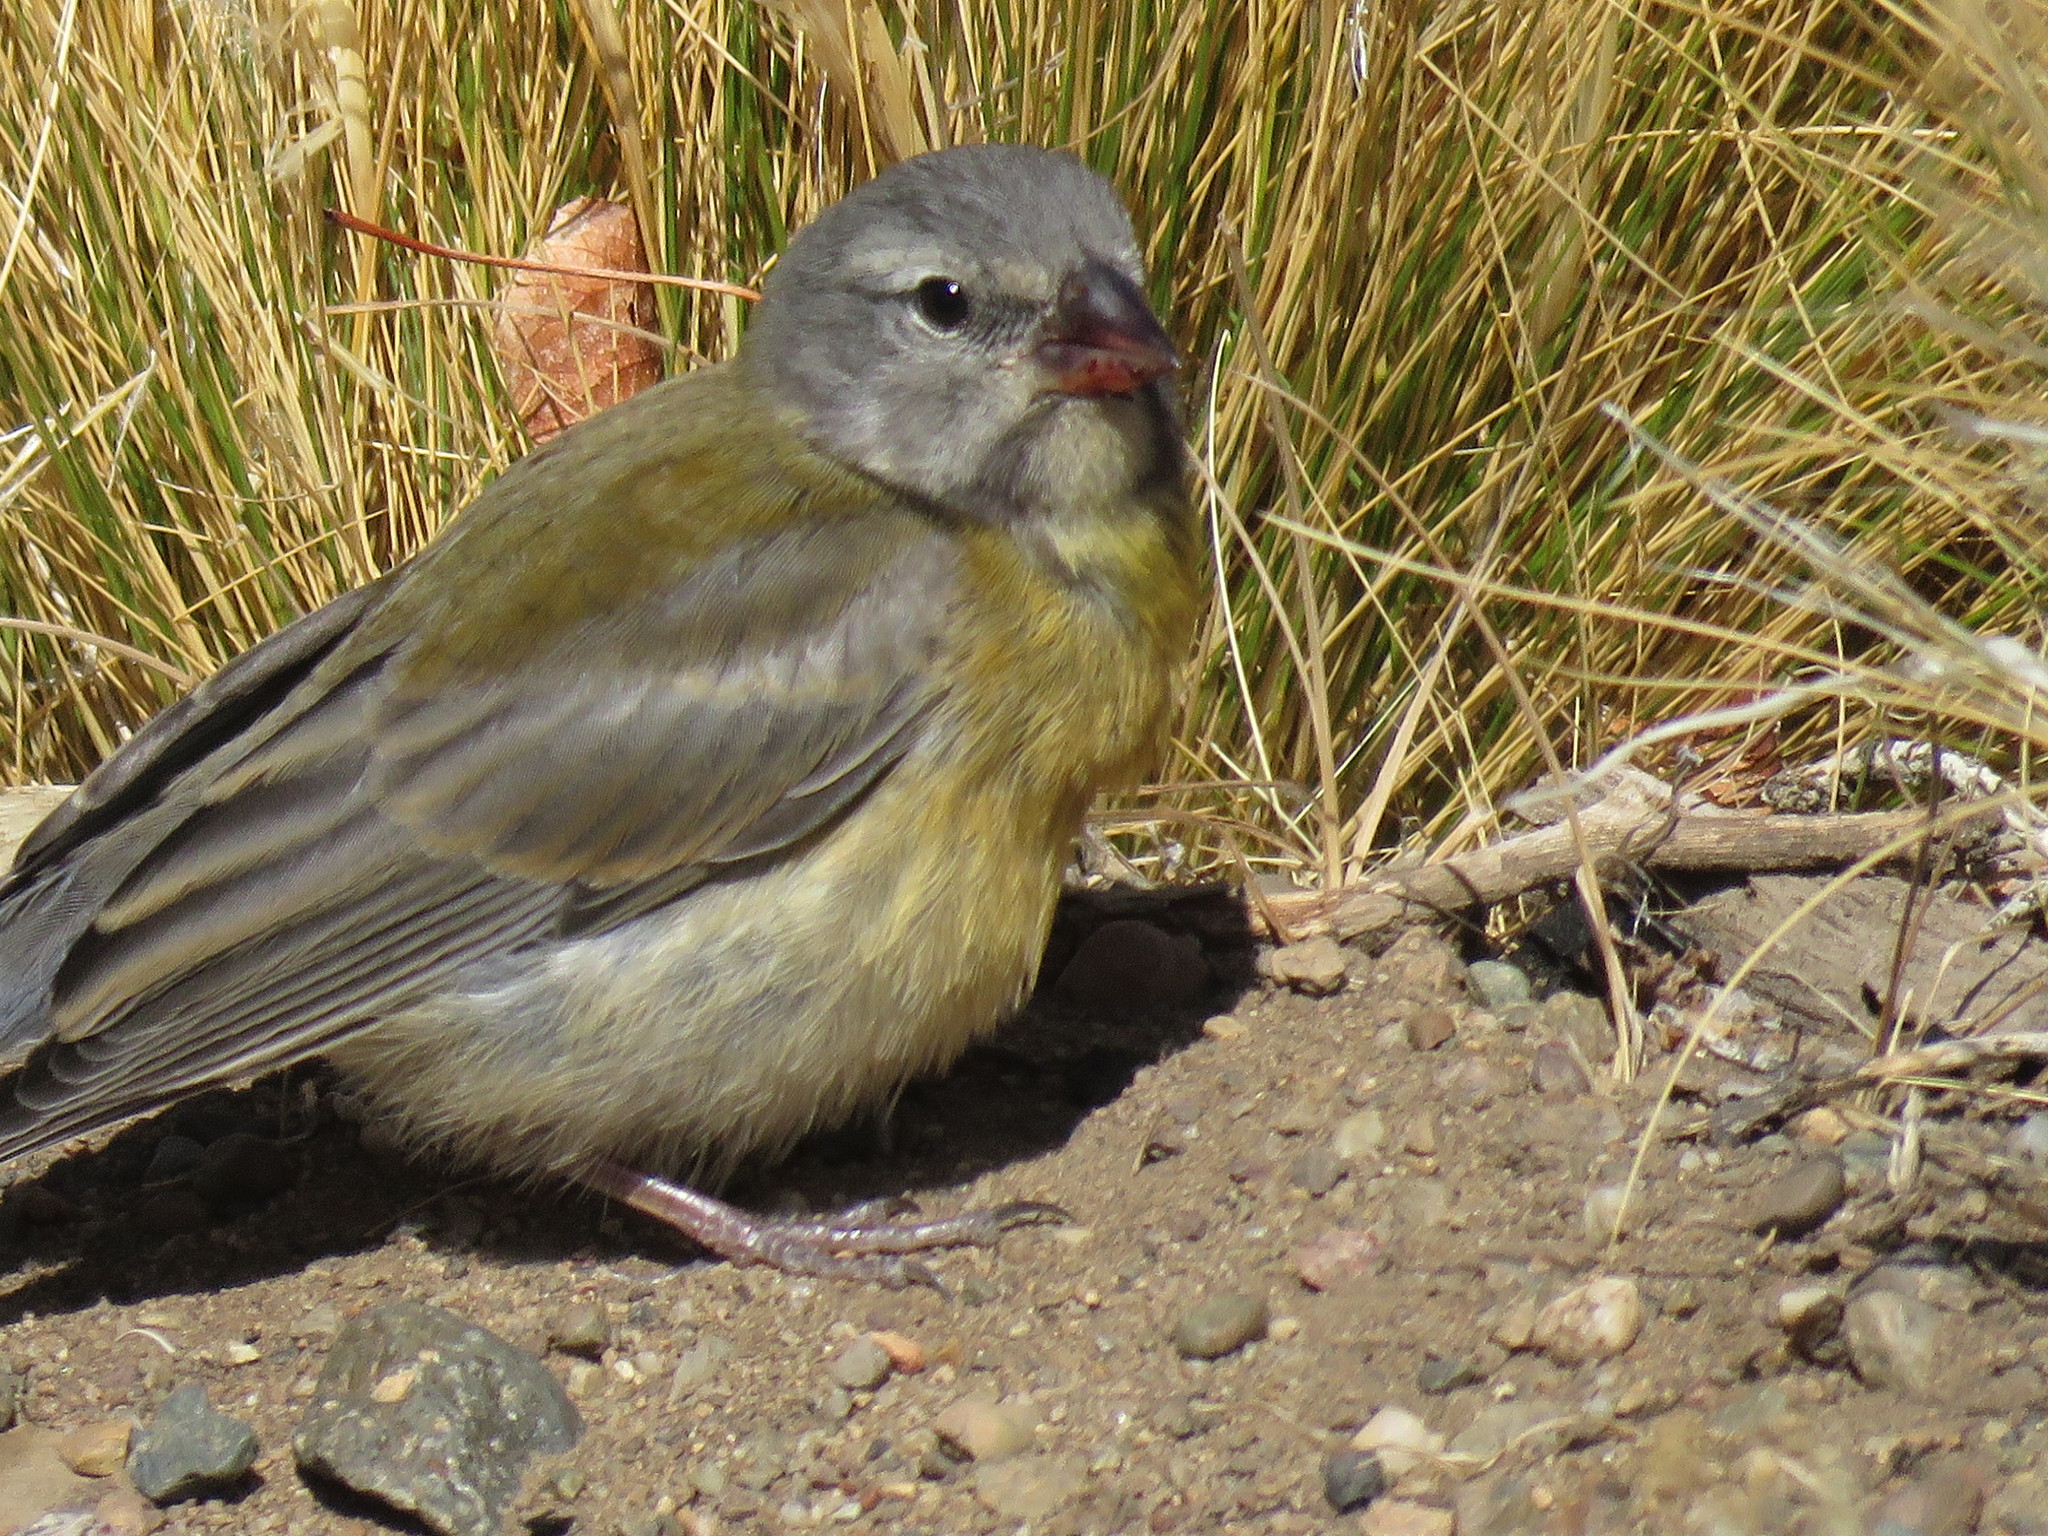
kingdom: Animalia
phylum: Chordata
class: Aves
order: Passeriformes
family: Thraupidae
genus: Phrygilus
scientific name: Phrygilus gayi
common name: Grey-hooded sierra finch
